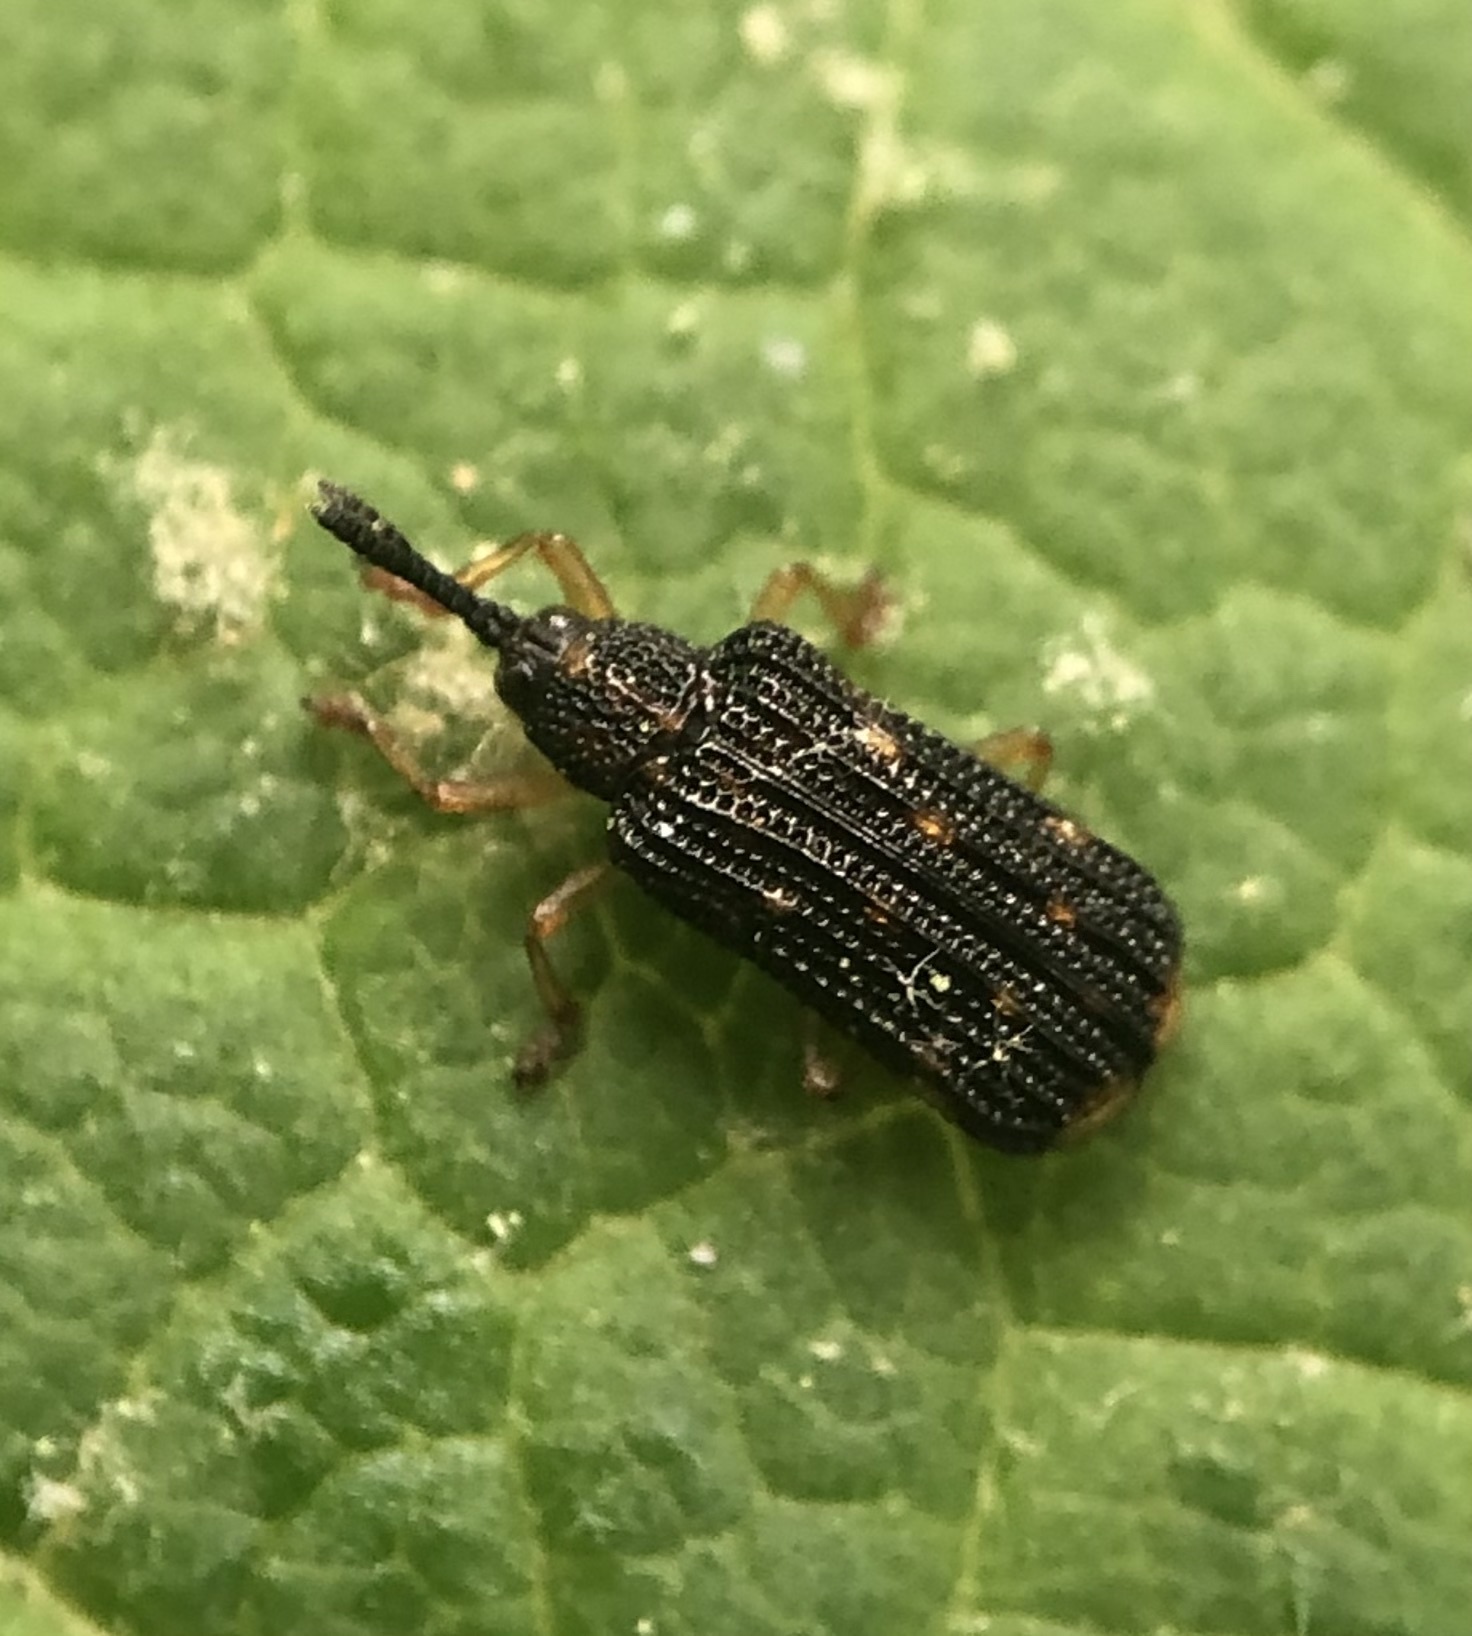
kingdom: Animalia
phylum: Arthropoda
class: Insecta
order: Coleoptera
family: Chrysomelidae
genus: Sumitrosis
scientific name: Sumitrosis inaequalis
